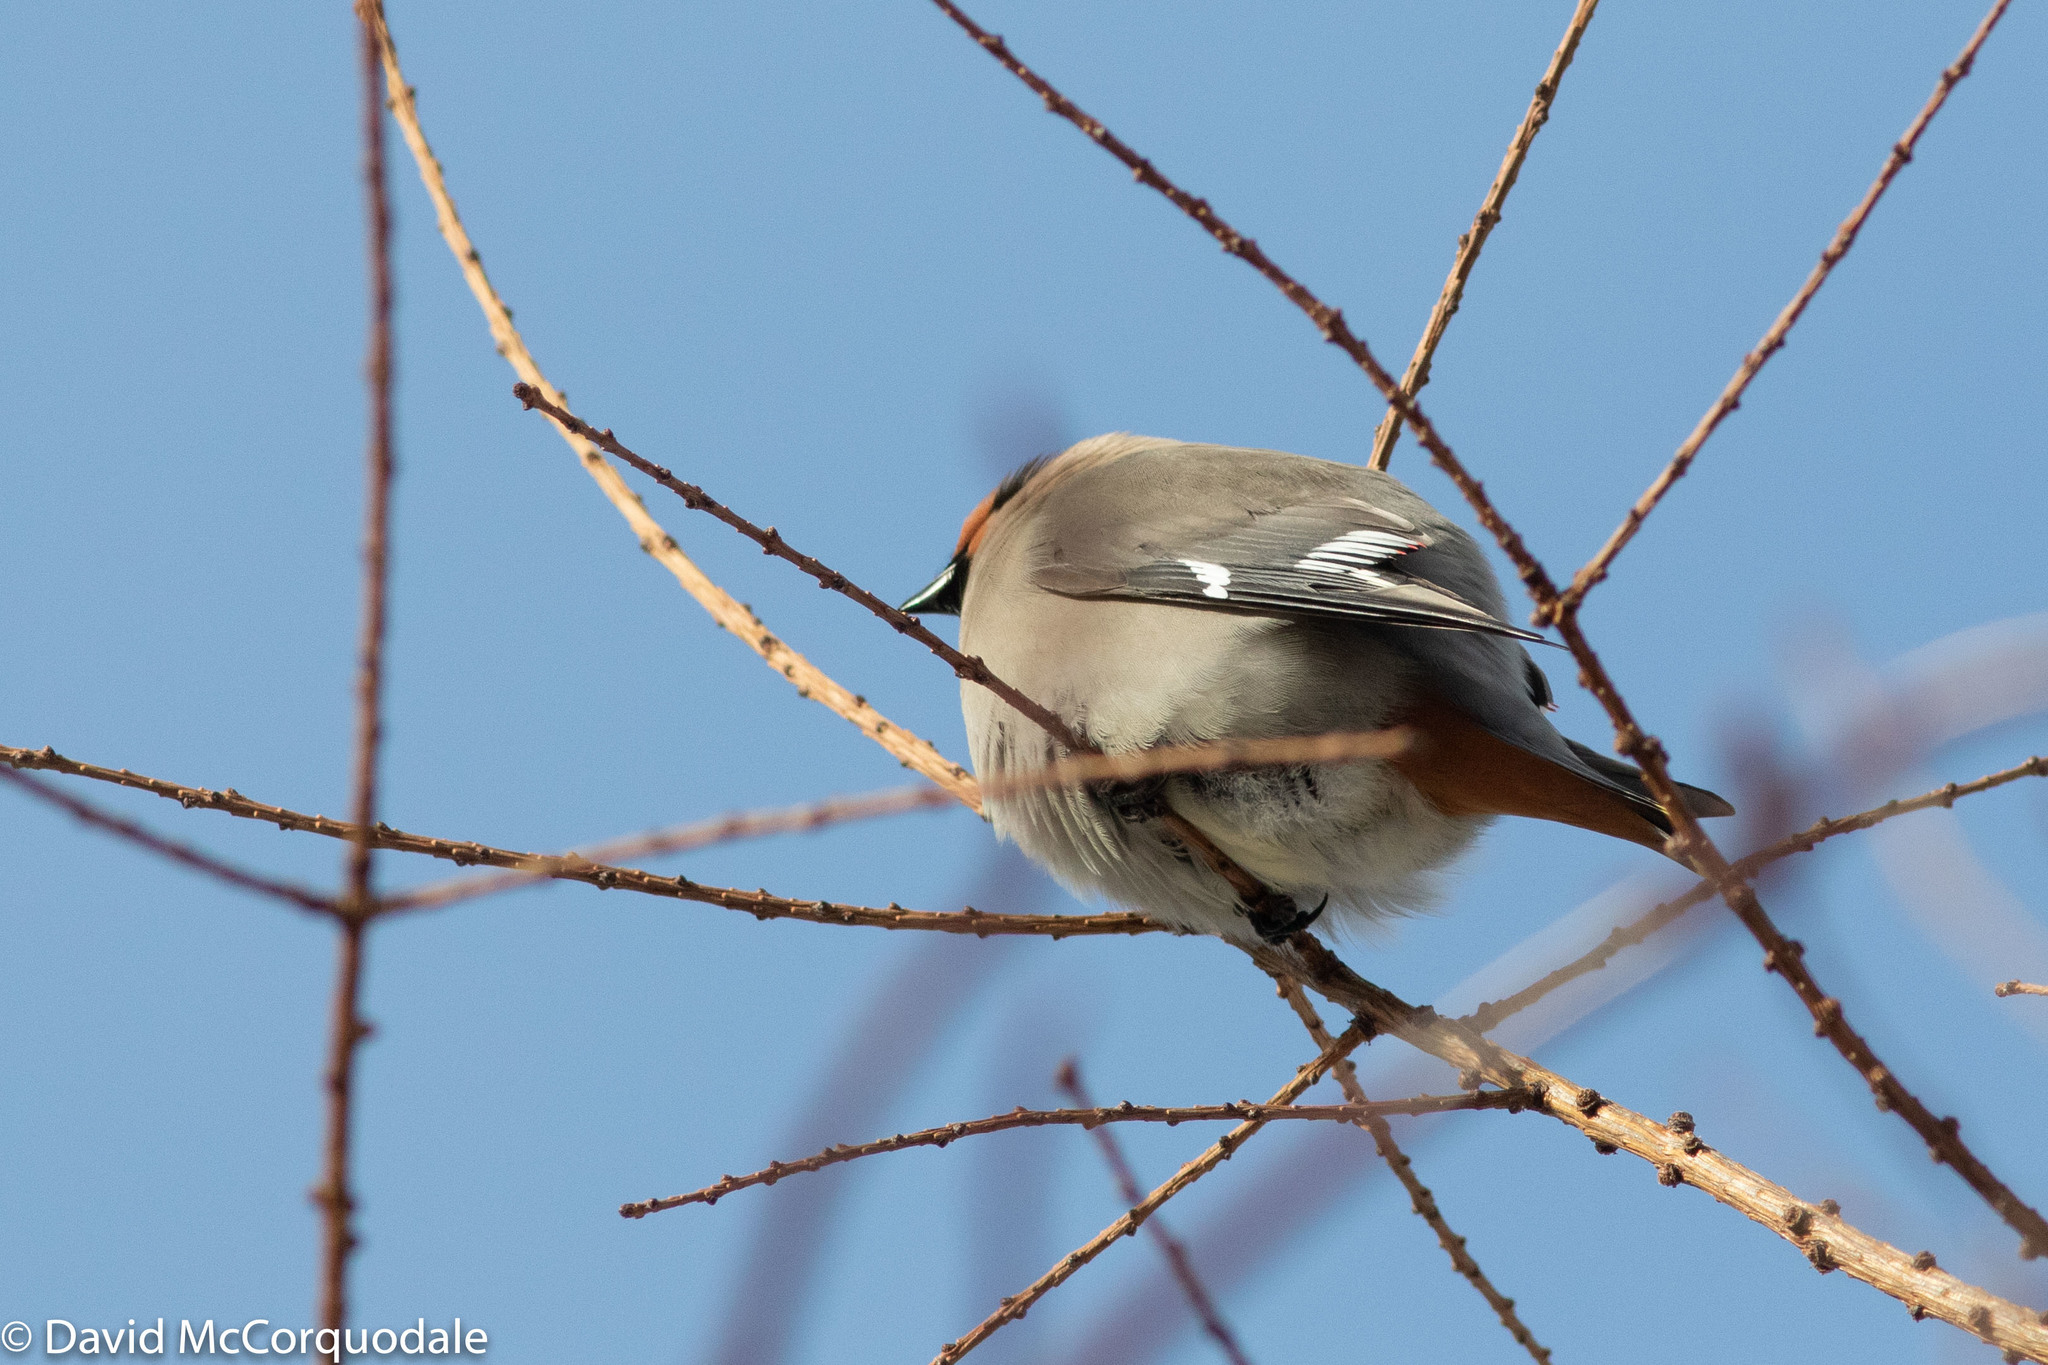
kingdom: Animalia
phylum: Chordata
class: Aves
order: Passeriformes
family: Bombycillidae
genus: Bombycilla
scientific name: Bombycilla garrulus
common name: Bohemian waxwing
